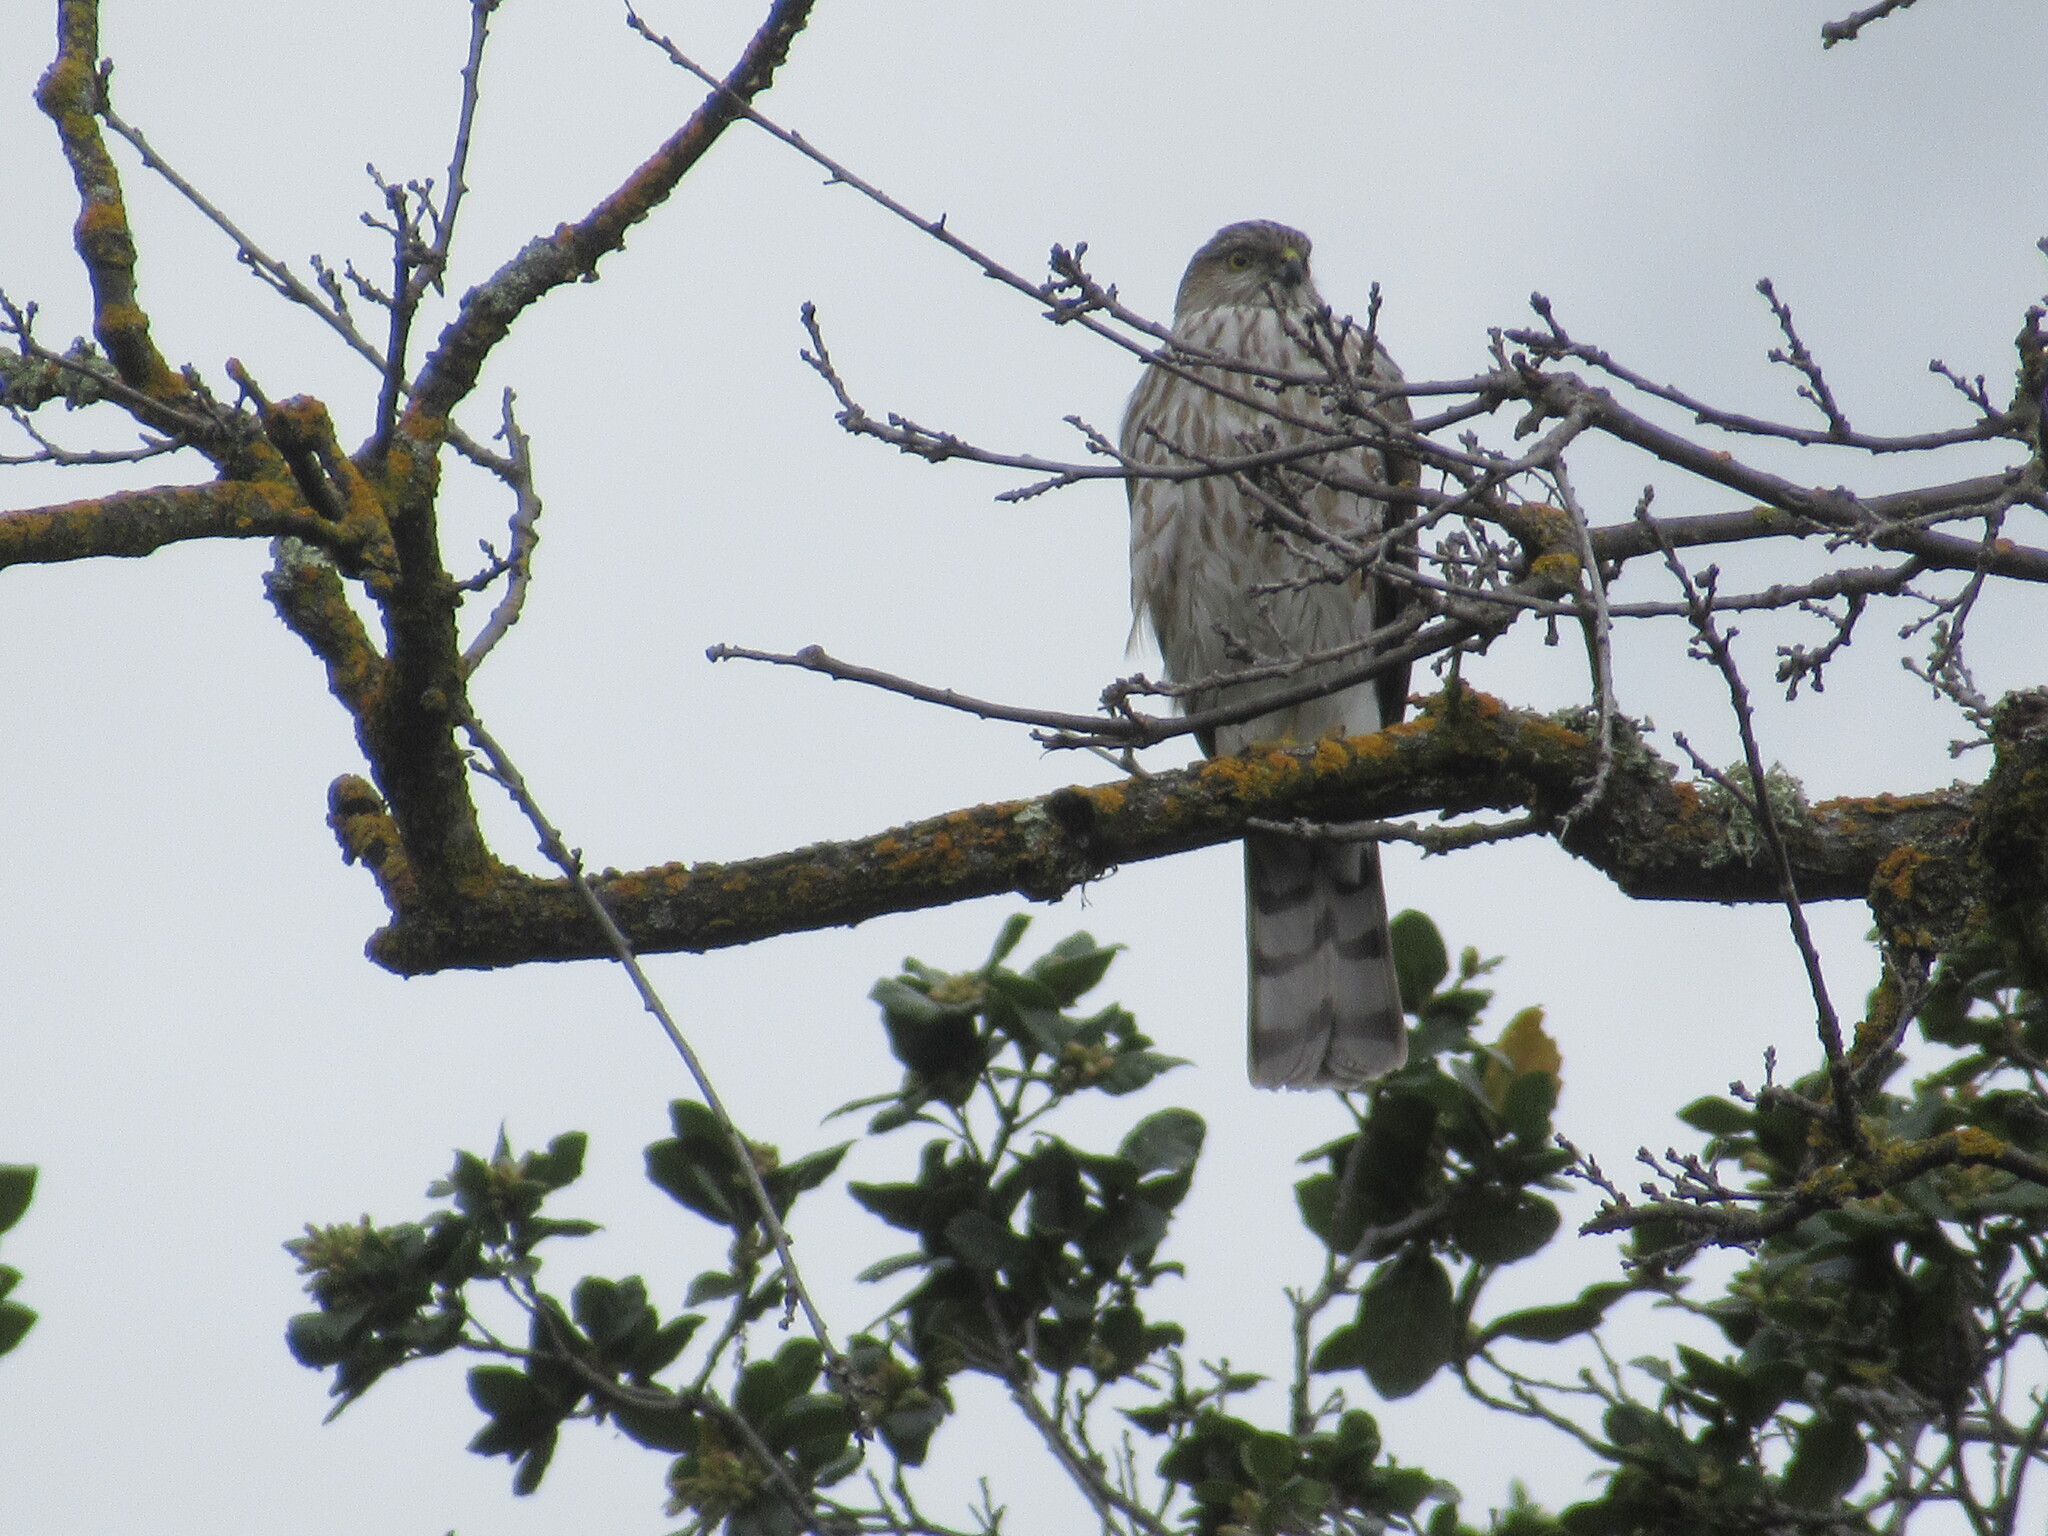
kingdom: Animalia
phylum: Chordata
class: Aves
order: Accipitriformes
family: Accipitridae
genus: Accipiter
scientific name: Accipiter striatus
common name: Sharp-shinned hawk
